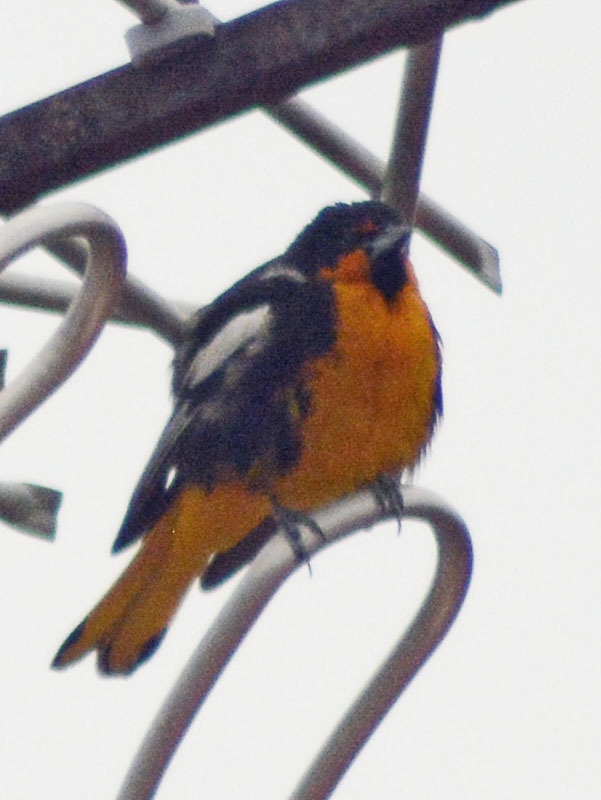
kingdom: Animalia
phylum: Chordata
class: Aves
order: Passeriformes
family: Icteridae
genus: Icterus
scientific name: Icterus abeillei
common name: Black-backed oriole
